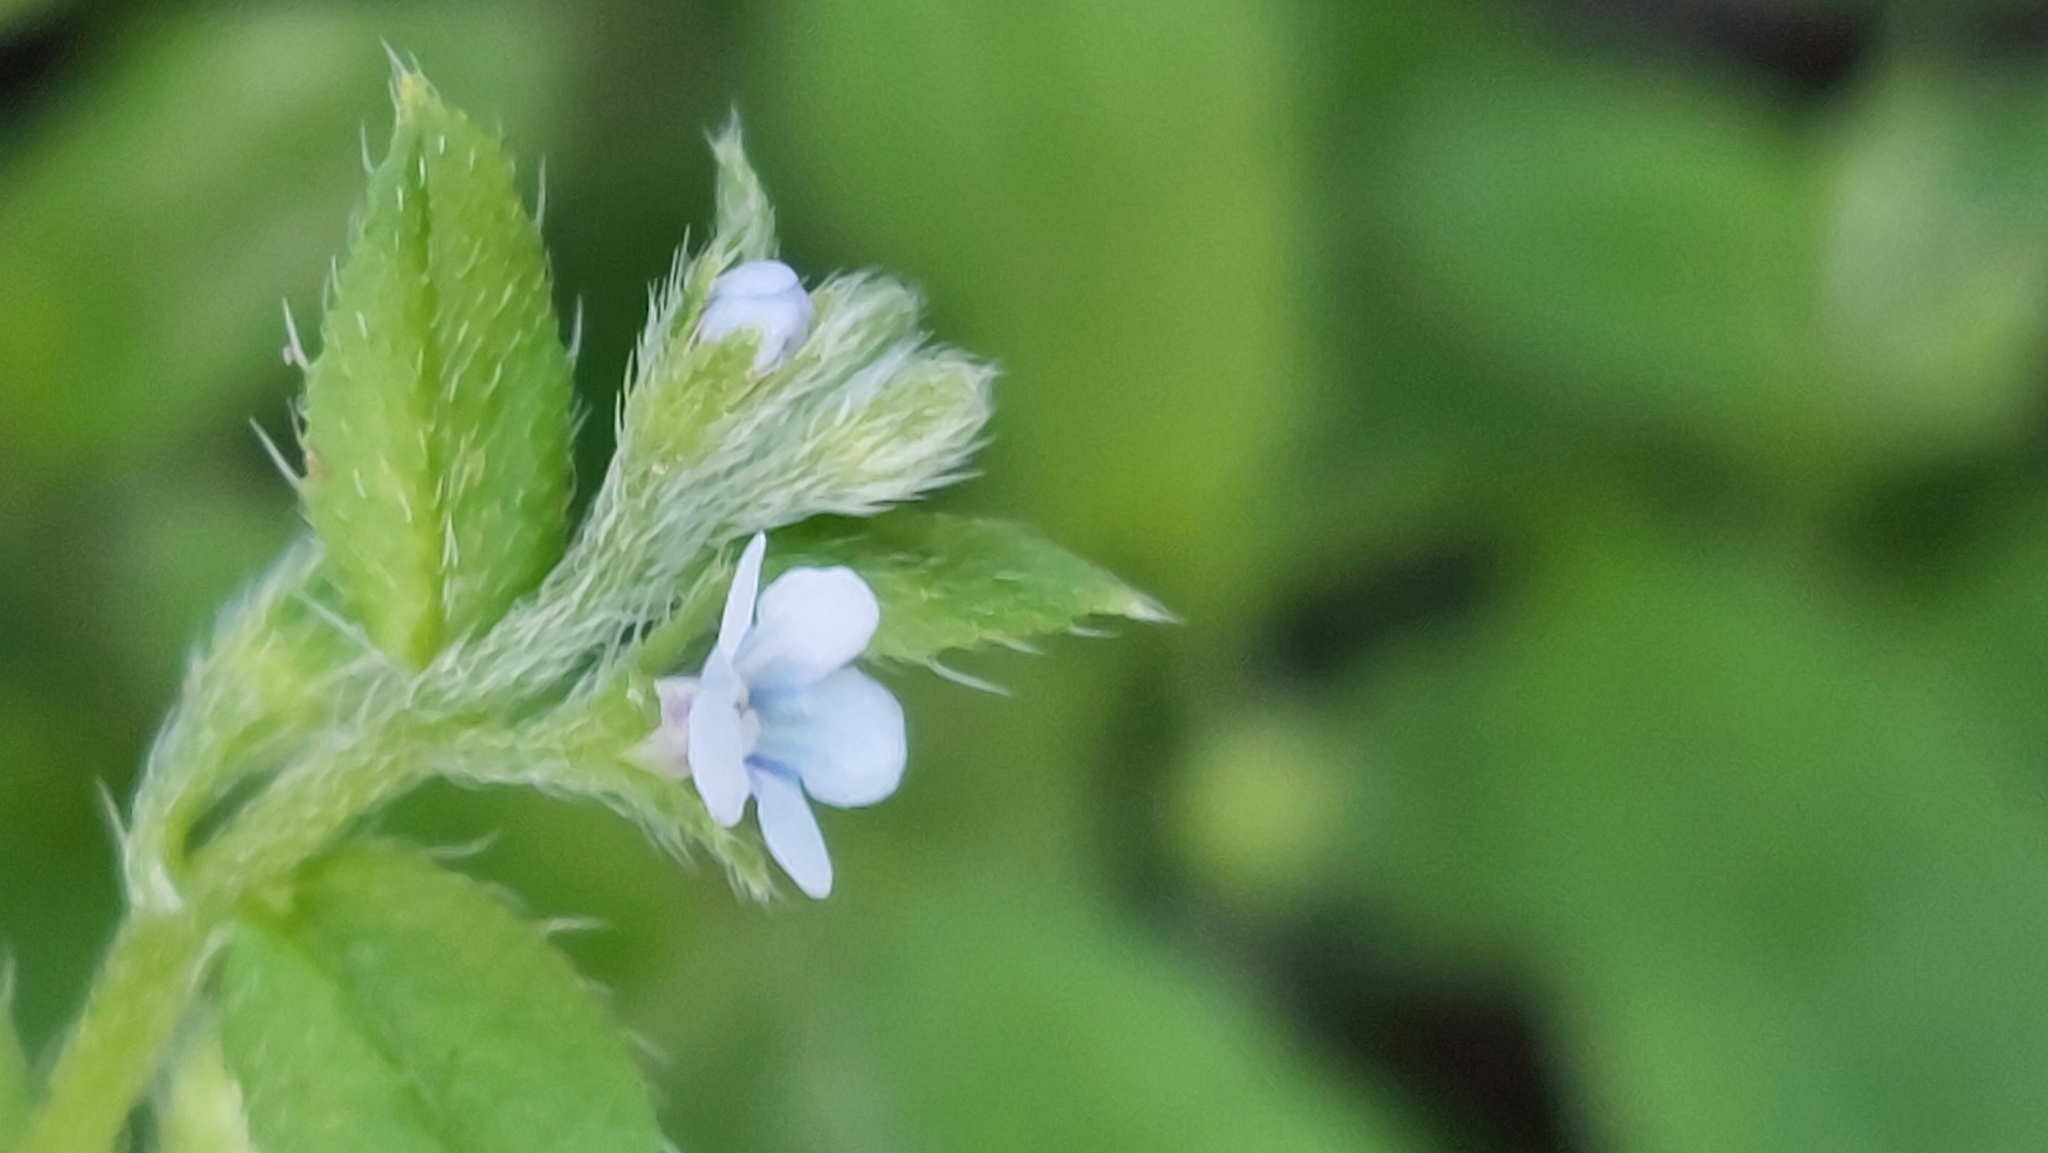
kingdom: Plantae
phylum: Tracheophyta
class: Magnoliopsida
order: Boraginales
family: Boraginaceae
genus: Bothriospermum
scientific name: Bothriospermum zeylanicum
